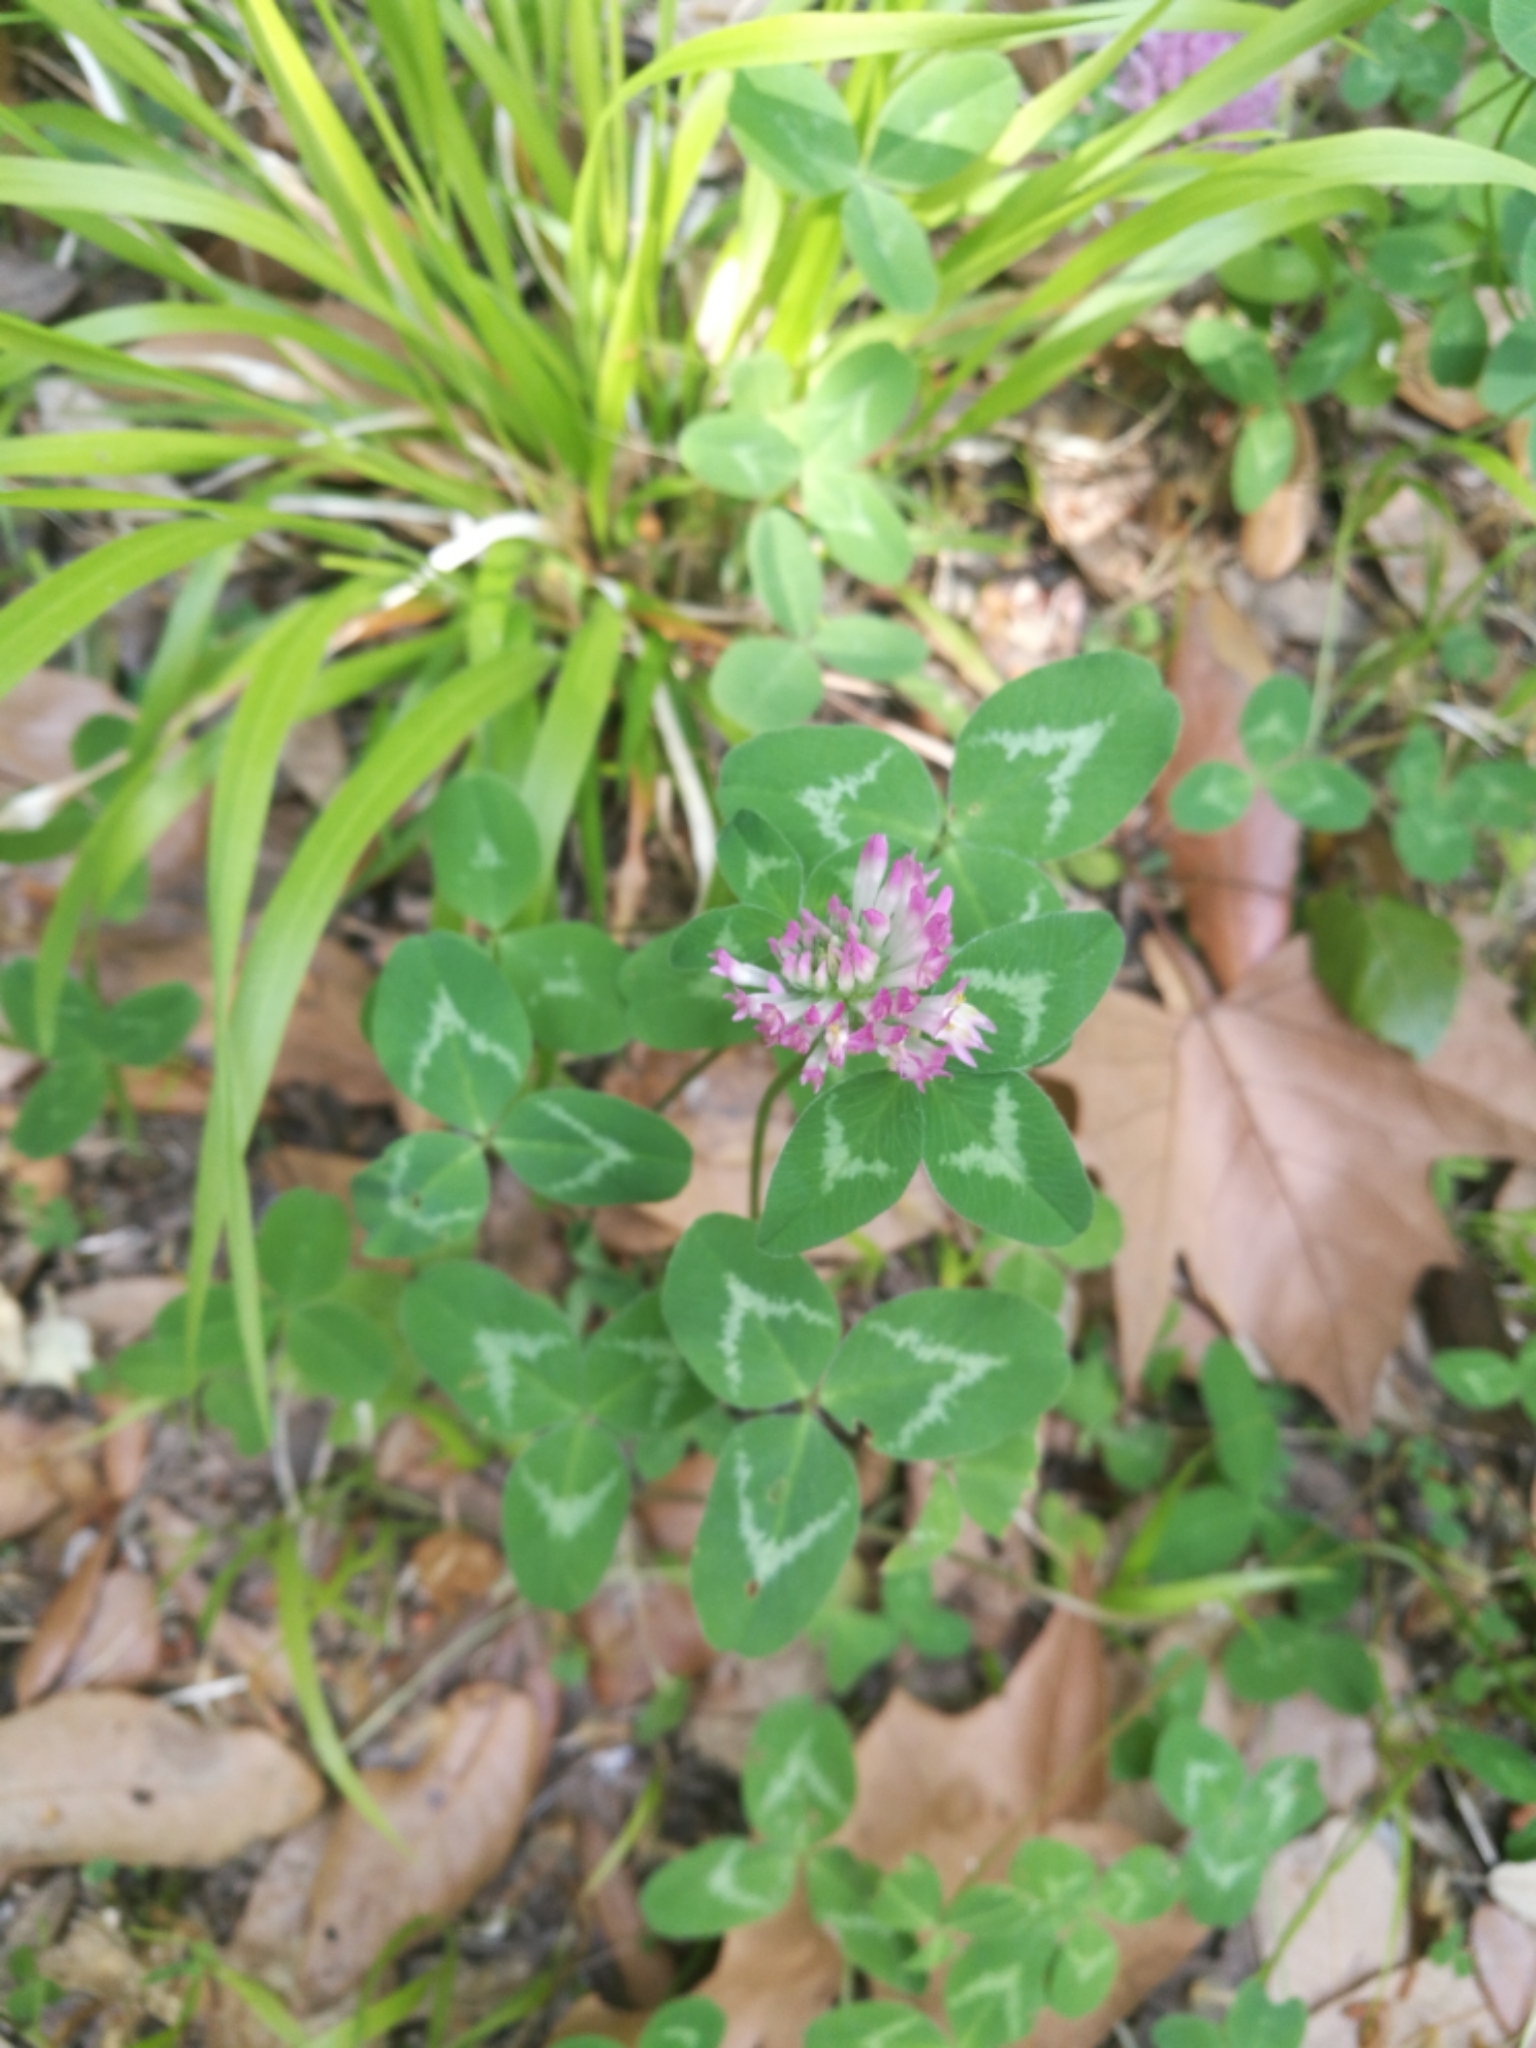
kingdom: Plantae
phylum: Tracheophyta
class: Magnoliopsida
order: Fabales
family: Fabaceae
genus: Trifolium
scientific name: Trifolium pratense
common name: Red clover
